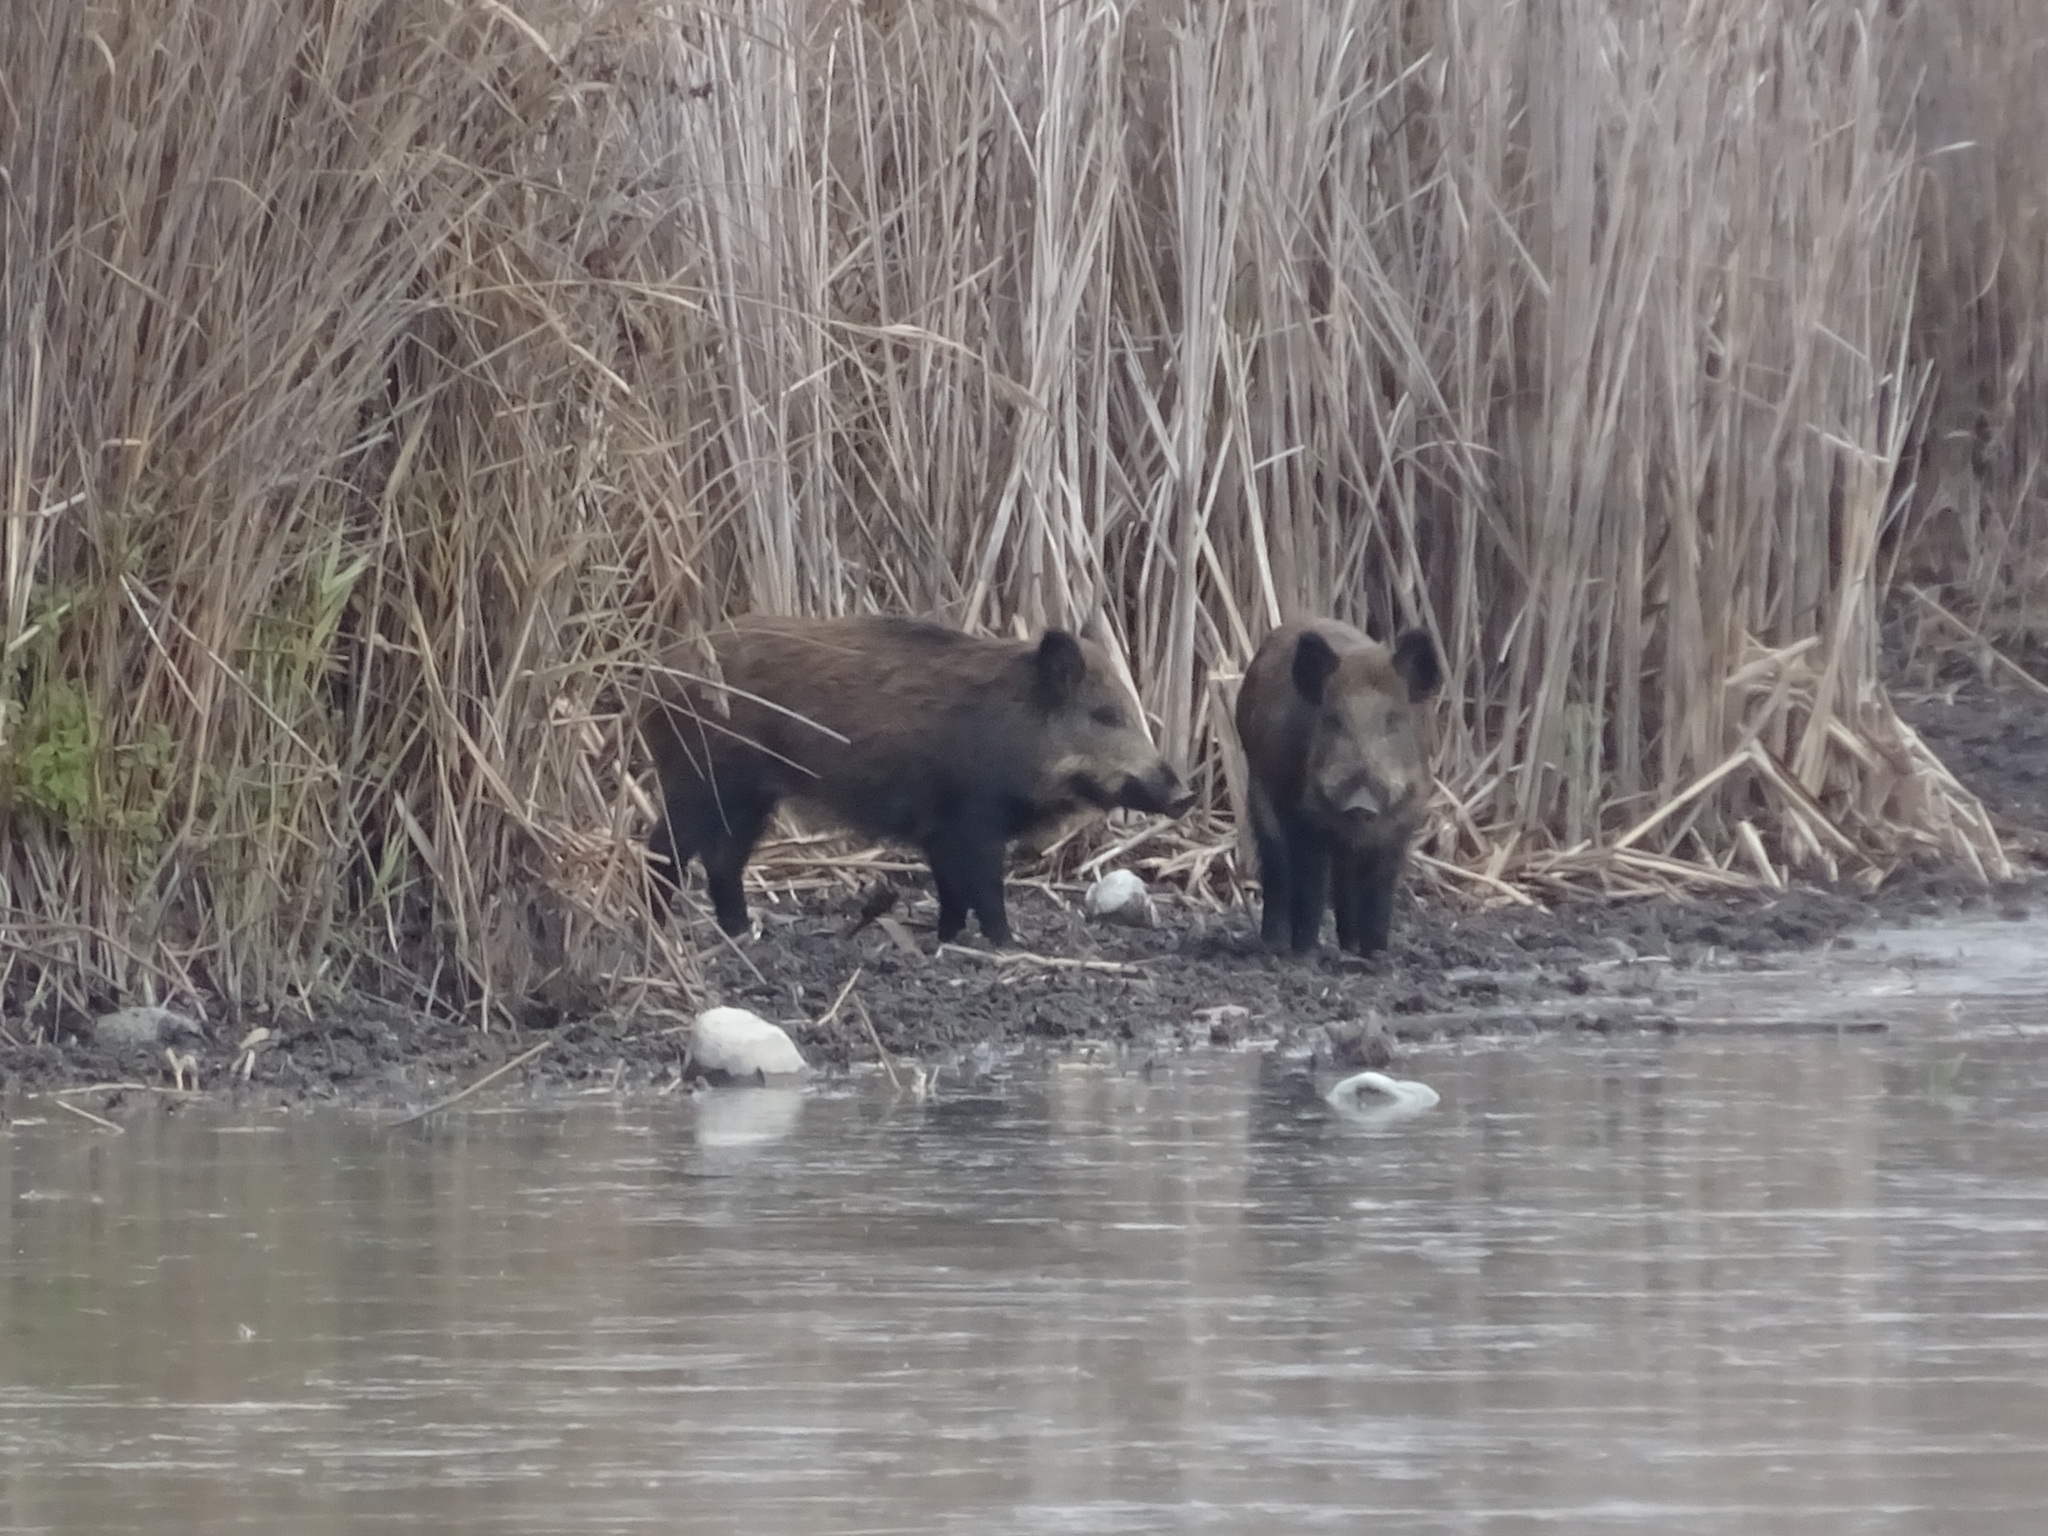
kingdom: Animalia
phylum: Chordata
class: Mammalia
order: Artiodactyla
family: Suidae
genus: Sus
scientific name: Sus scrofa
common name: Wild boar
